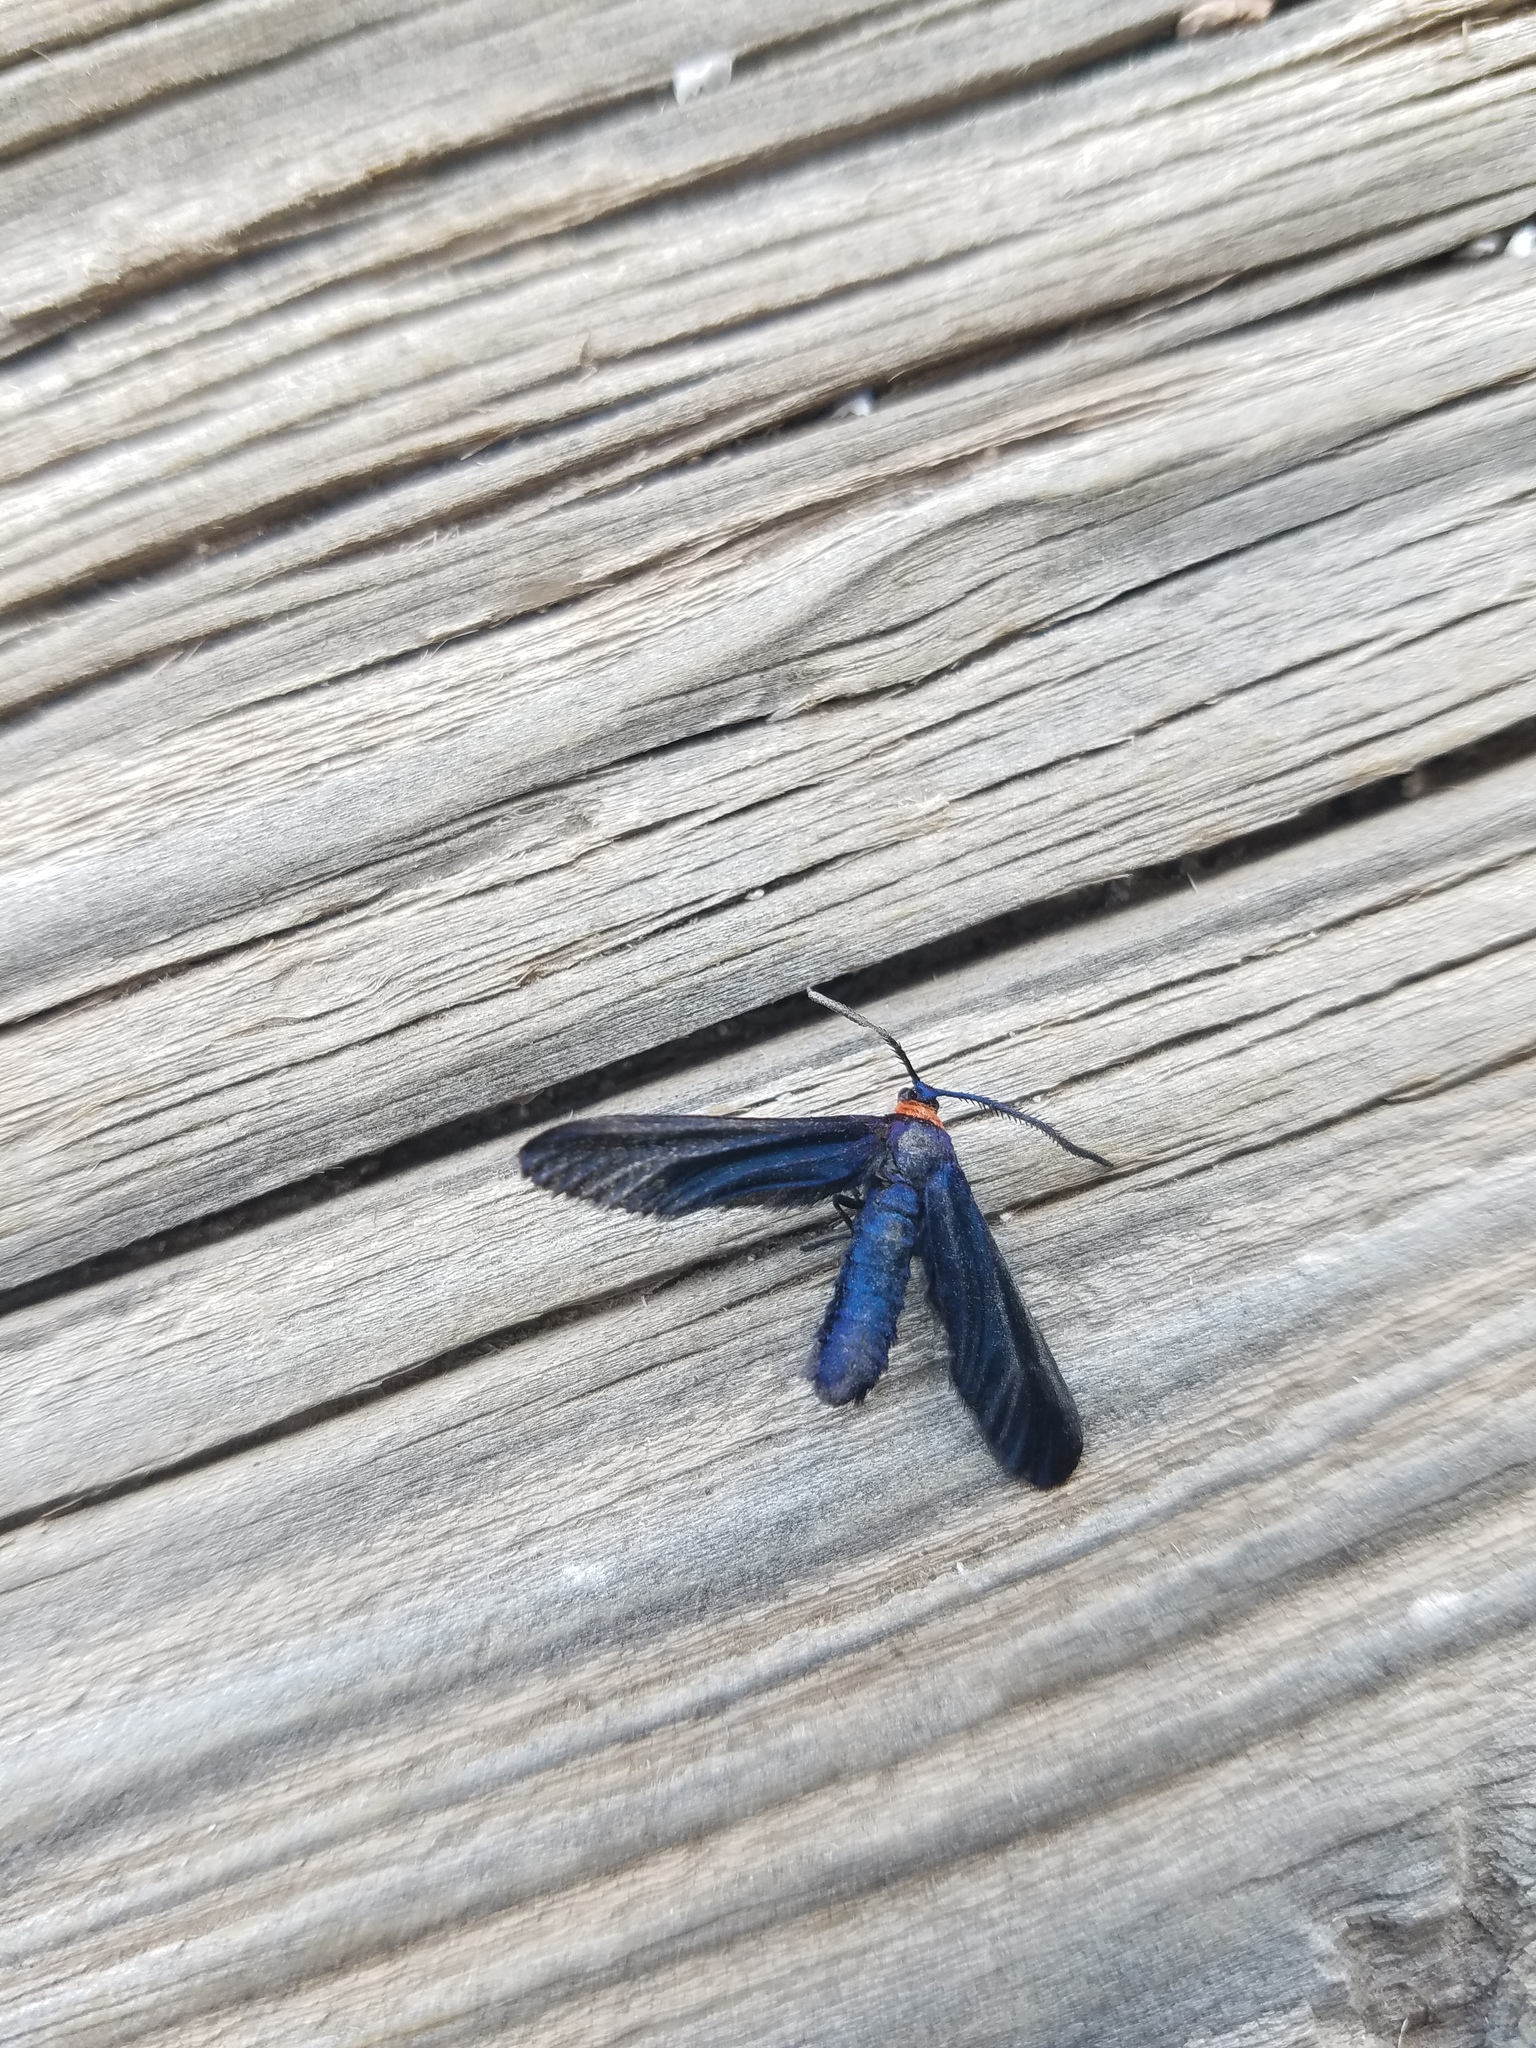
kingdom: Animalia
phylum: Arthropoda
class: Insecta
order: Lepidoptera
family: Zygaenidae
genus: Harrisina
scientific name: Harrisina americana
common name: Grapeleaf skeletonizer moth
